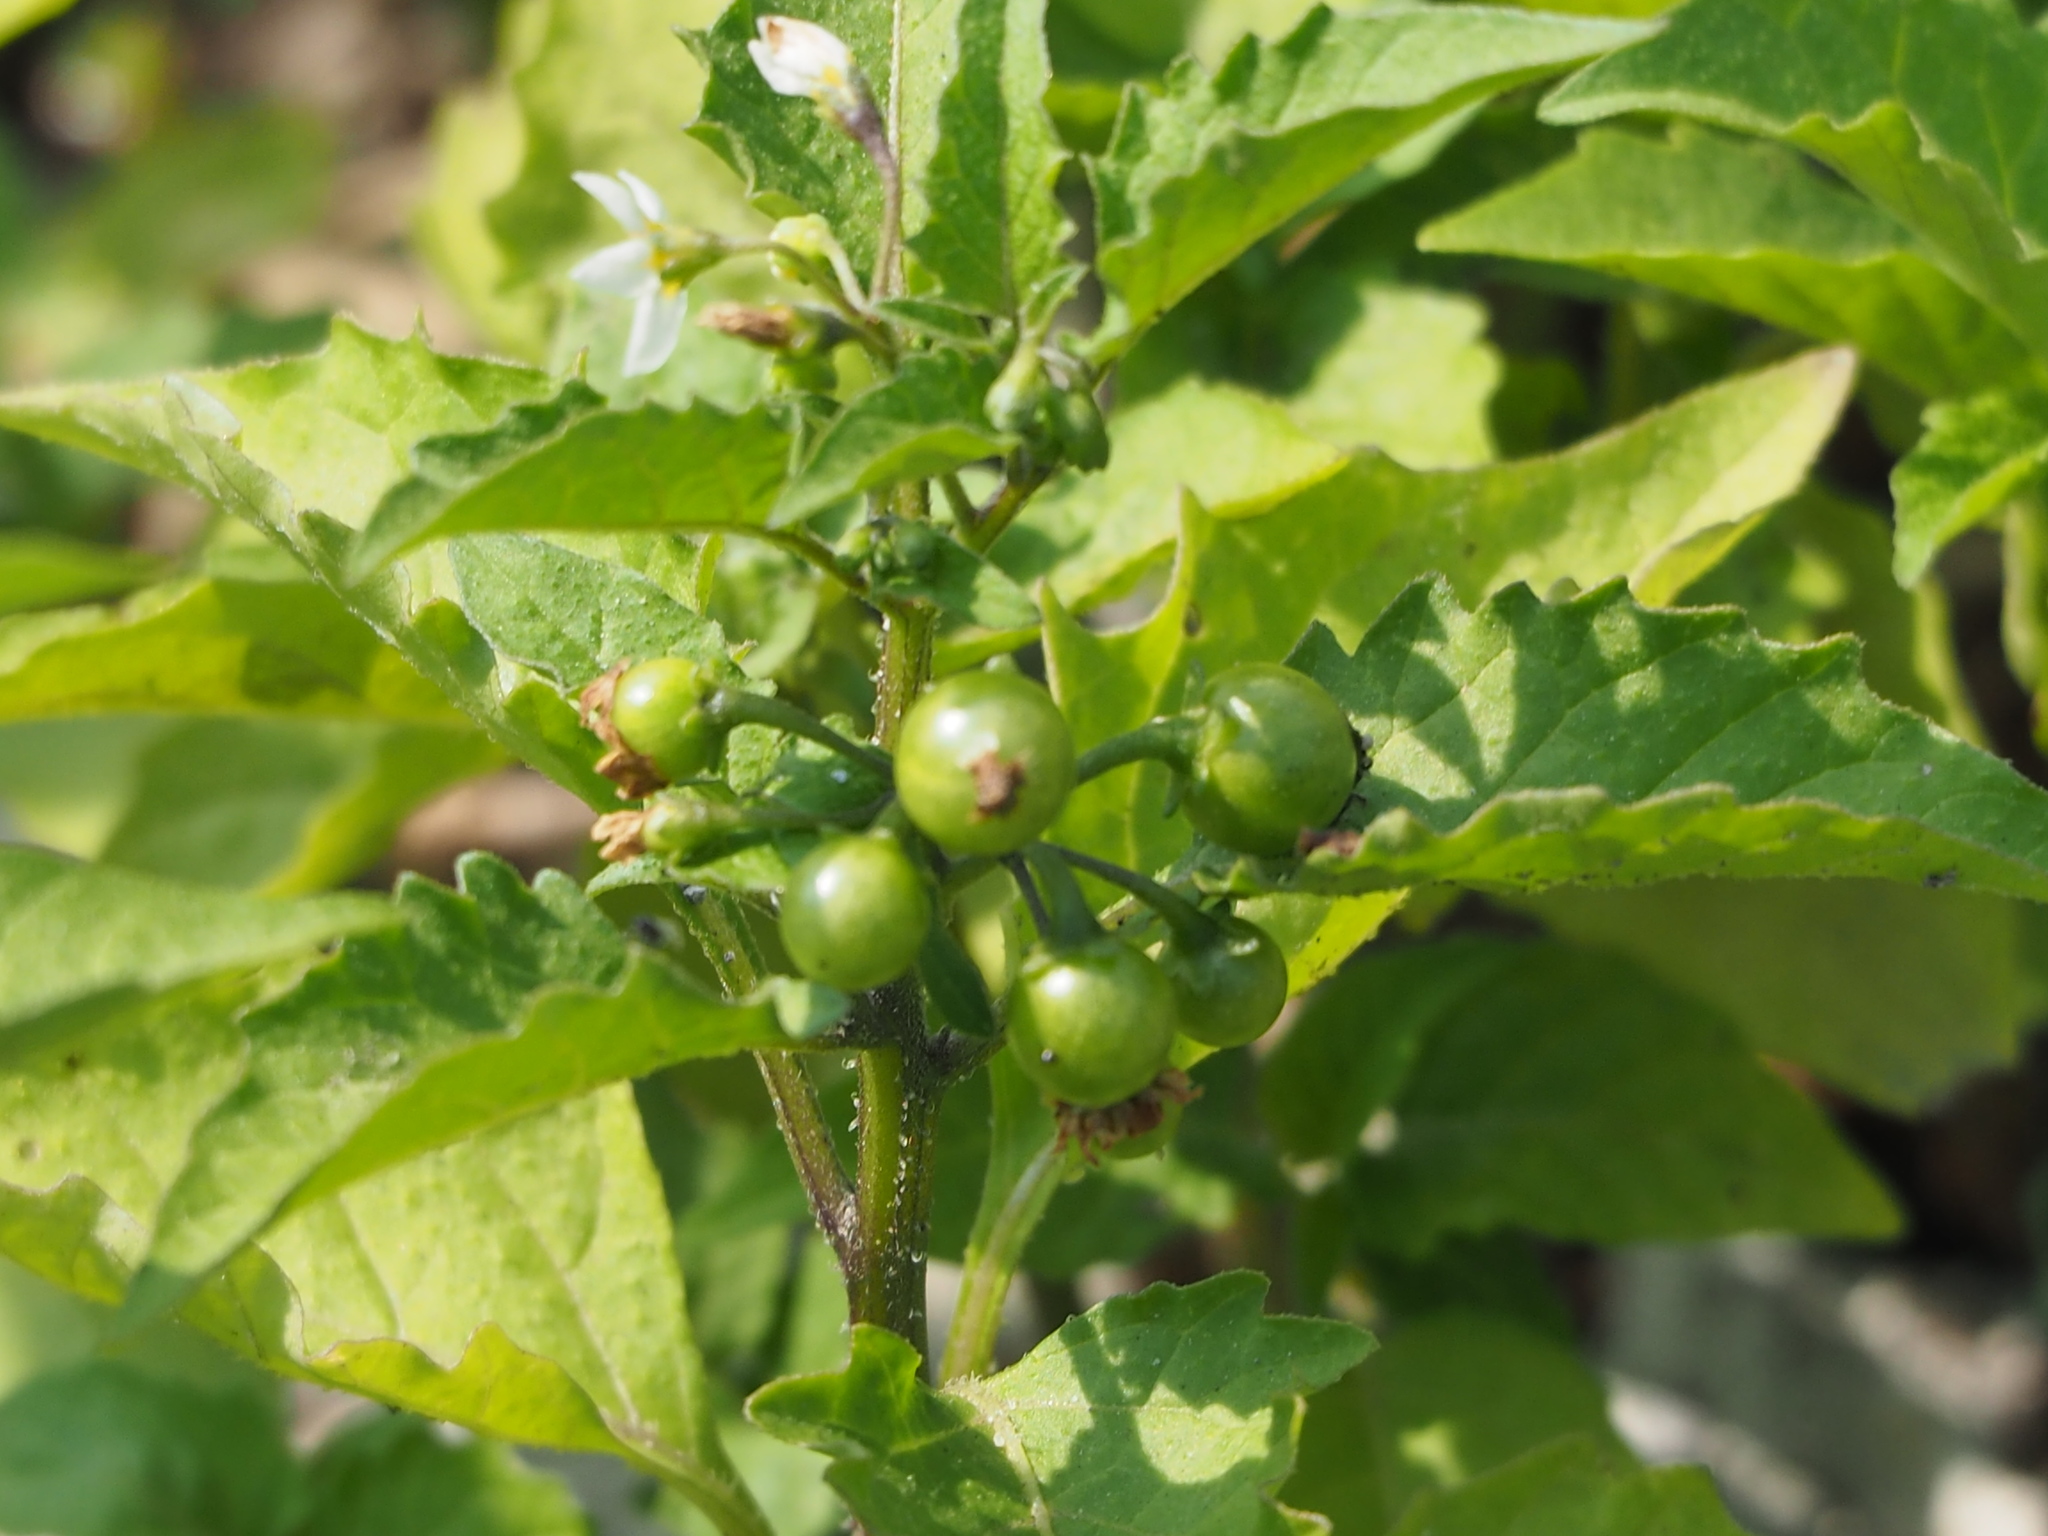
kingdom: Plantae
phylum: Tracheophyta
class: Magnoliopsida
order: Solanales
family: Solanaceae
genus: Solanum
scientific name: Solanum nigrum
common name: Black nightshade
